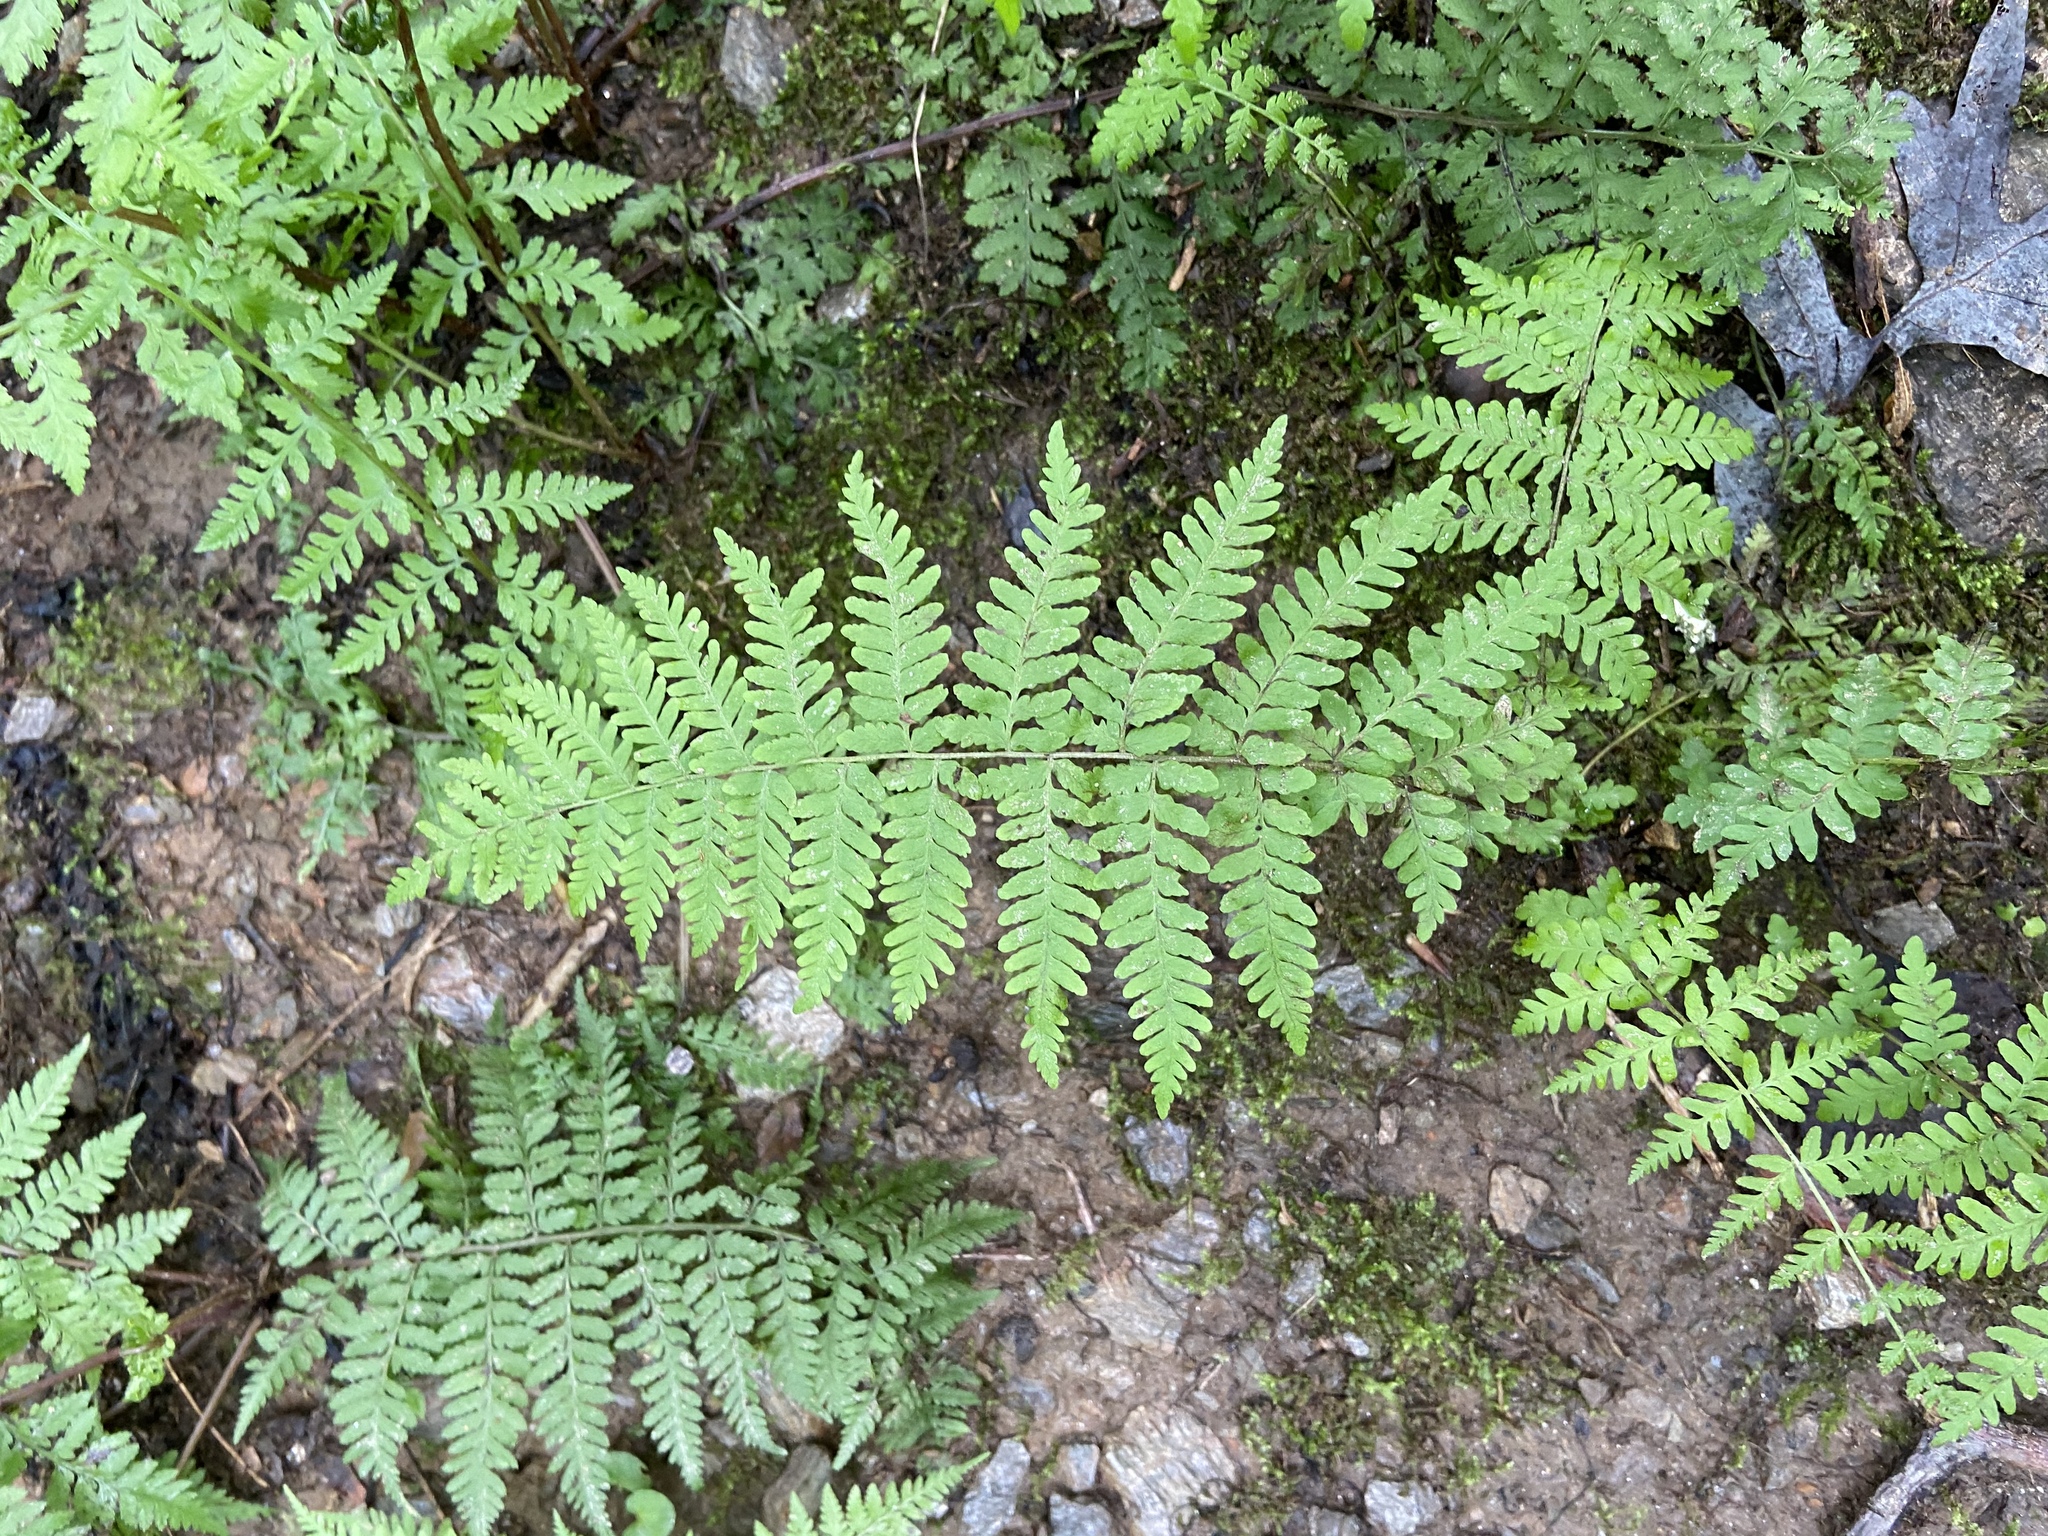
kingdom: Plantae
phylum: Tracheophyta
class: Polypodiopsida
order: Polypodiales
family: Thelypteridaceae
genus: Amauropelta
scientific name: Amauropelta noveboracensis
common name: New york fern
